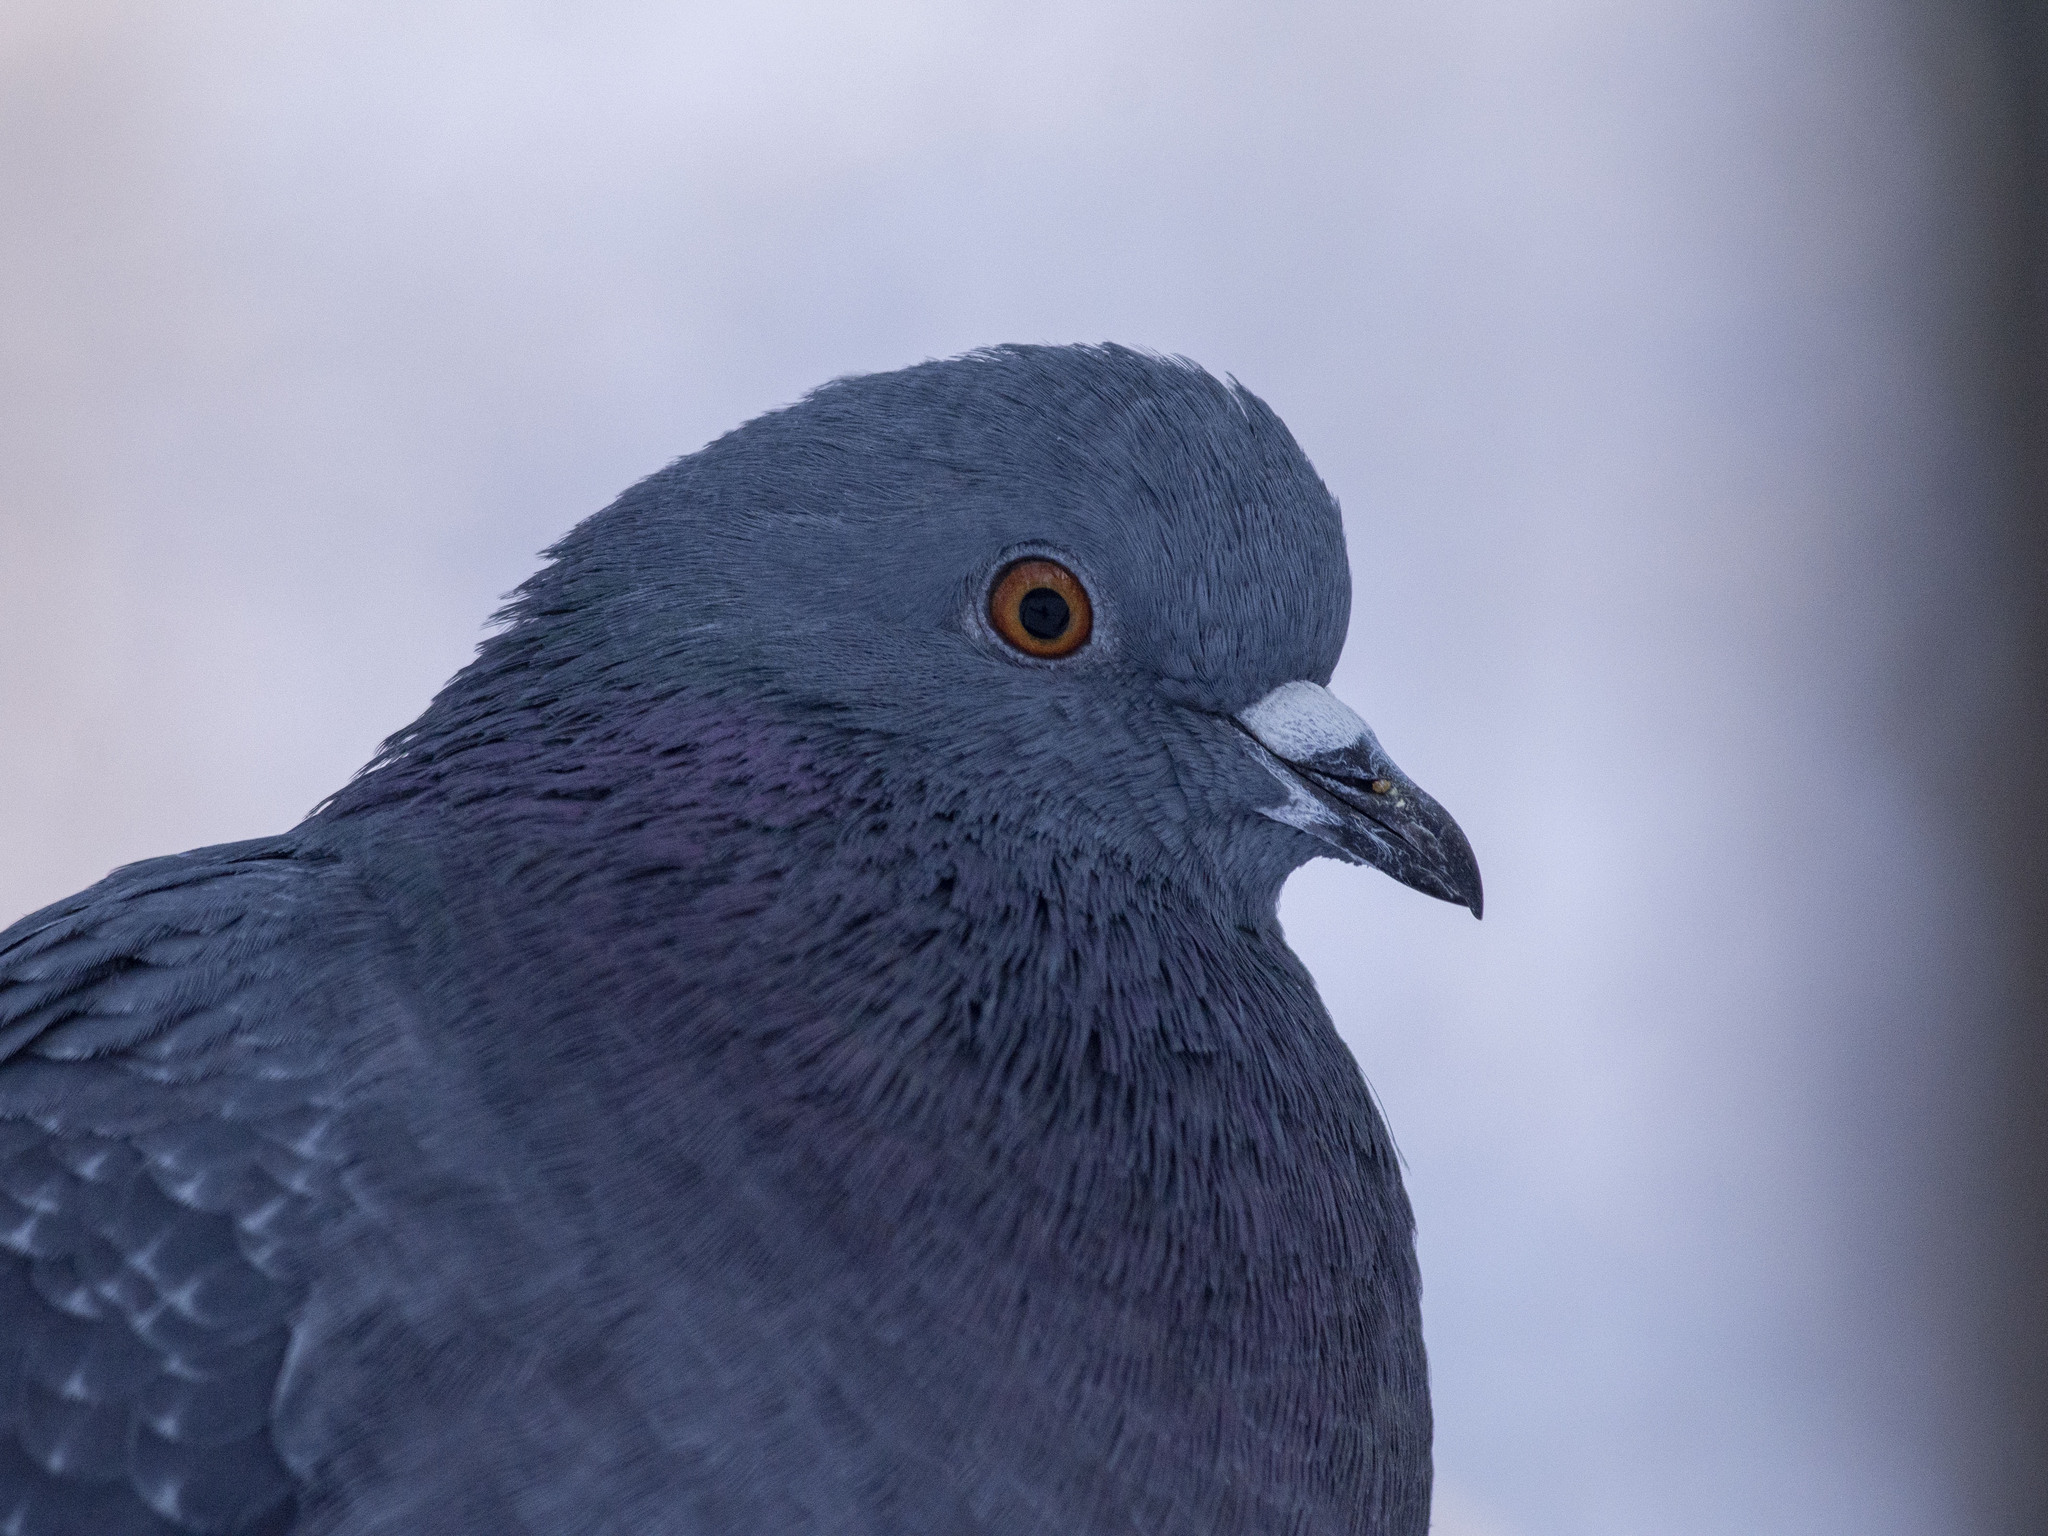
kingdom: Animalia
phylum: Chordata
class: Aves
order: Columbiformes
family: Columbidae
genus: Columba
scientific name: Columba livia
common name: Rock pigeon
